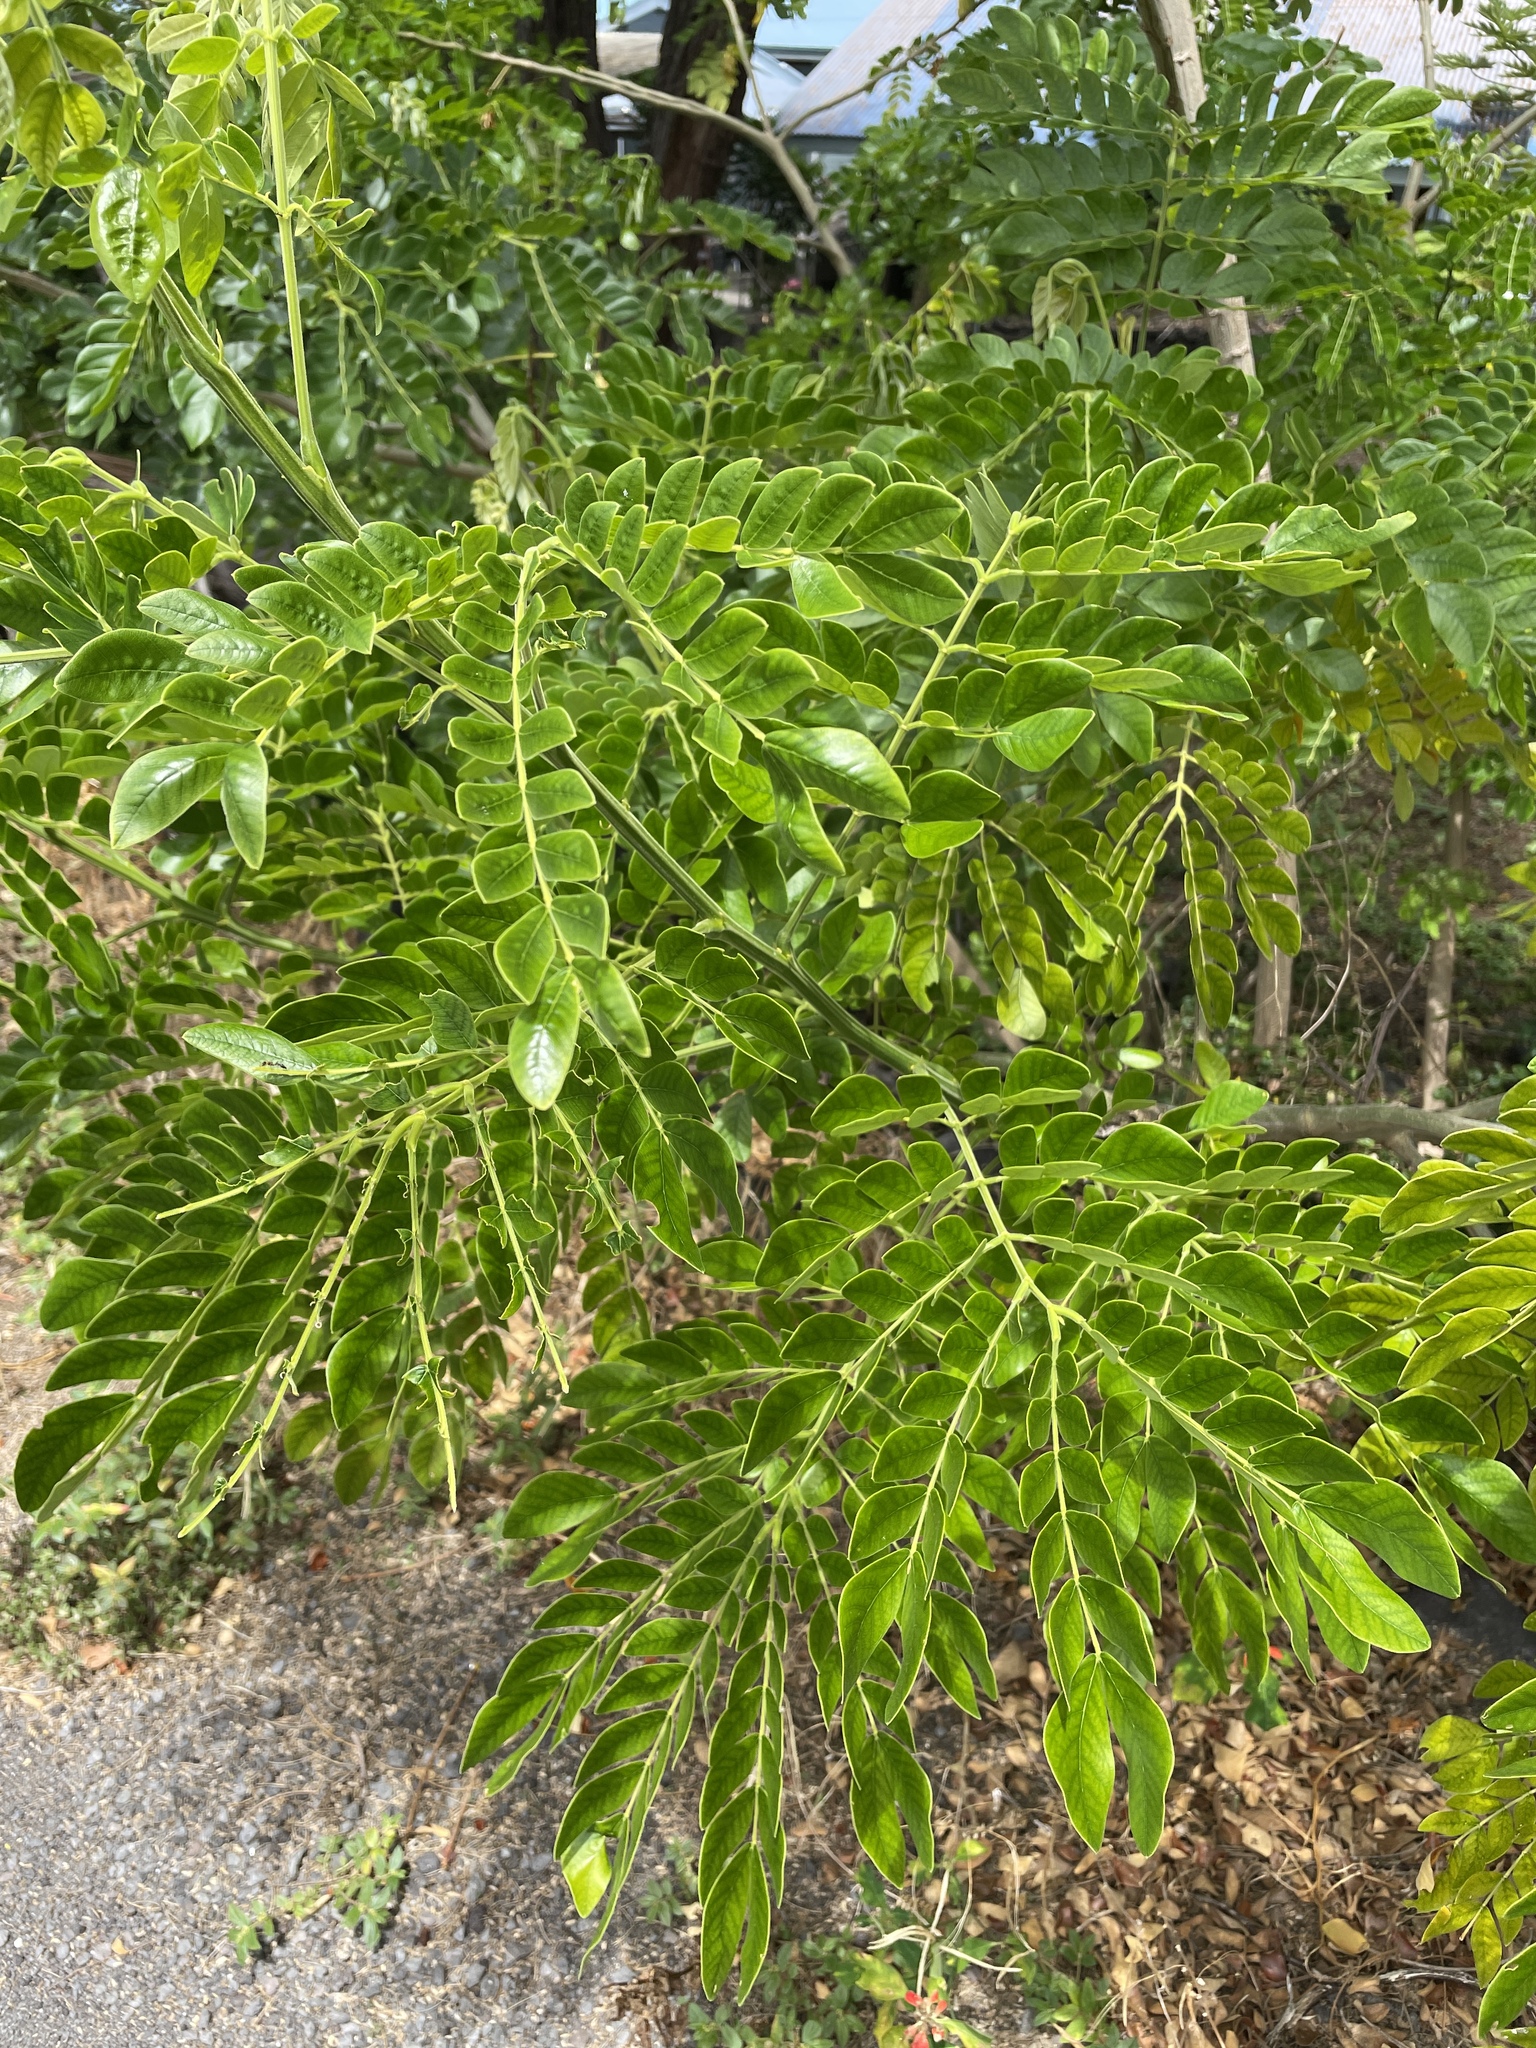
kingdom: Plantae
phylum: Tracheophyta
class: Magnoliopsida
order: Fabales
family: Fabaceae
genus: Samanea
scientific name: Samanea saman
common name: Raintree
